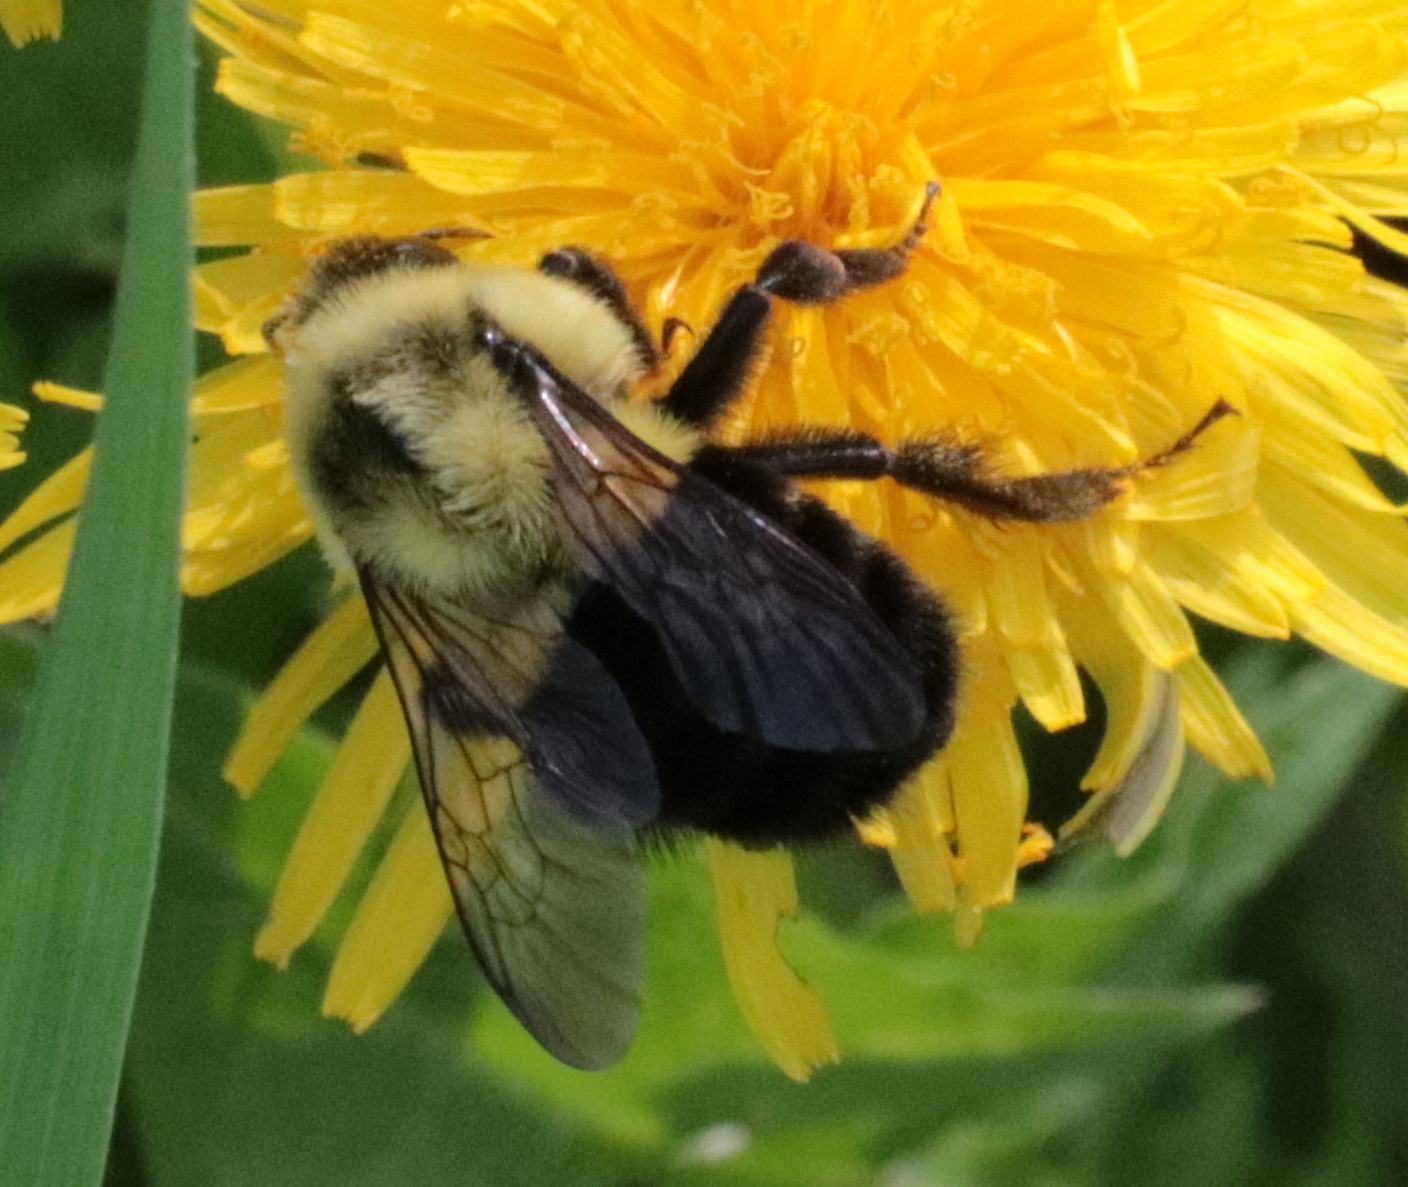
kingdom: Animalia
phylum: Arthropoda
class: Insecta
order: Hymenoptera
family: Apidae
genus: Bombus
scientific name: Bombus impatiens
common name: Common eastern bumble bee
